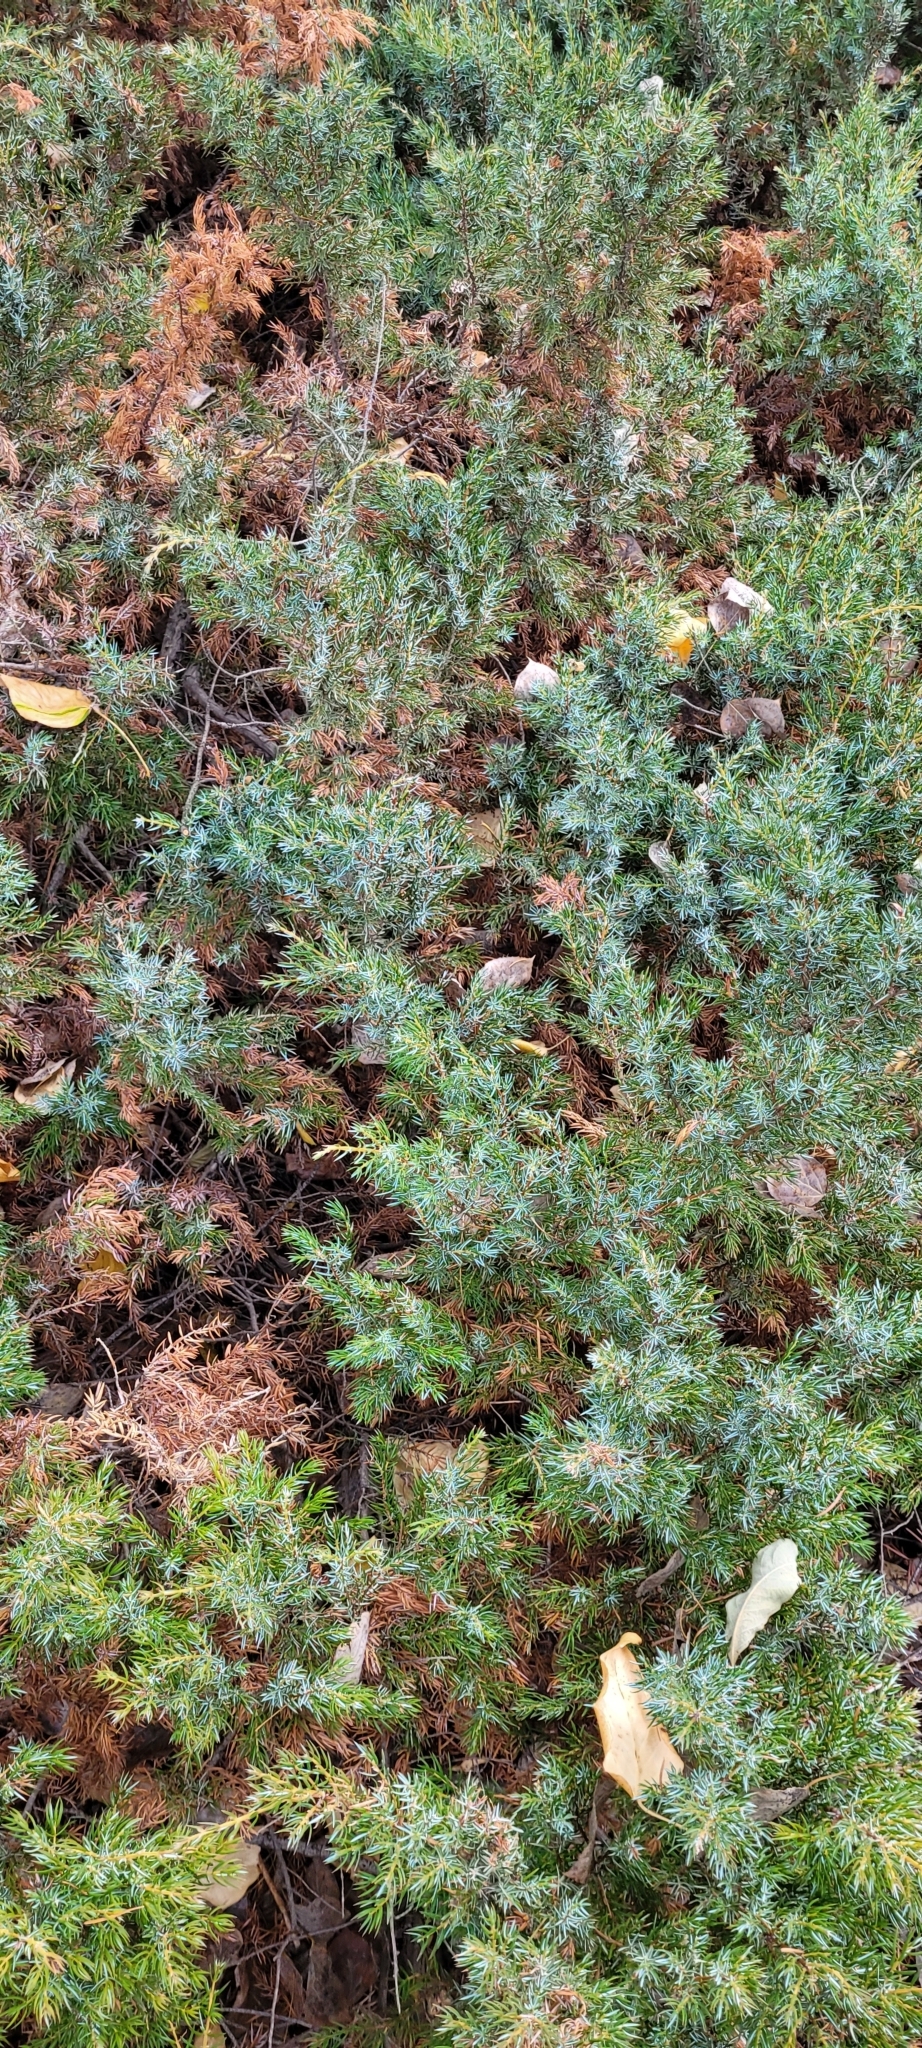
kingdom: Plantae
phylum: Tracheophyta
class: Pinopsida
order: Pinales
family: Cupressaceae
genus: Juniperus
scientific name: Juniperus communis
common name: Common juniper
